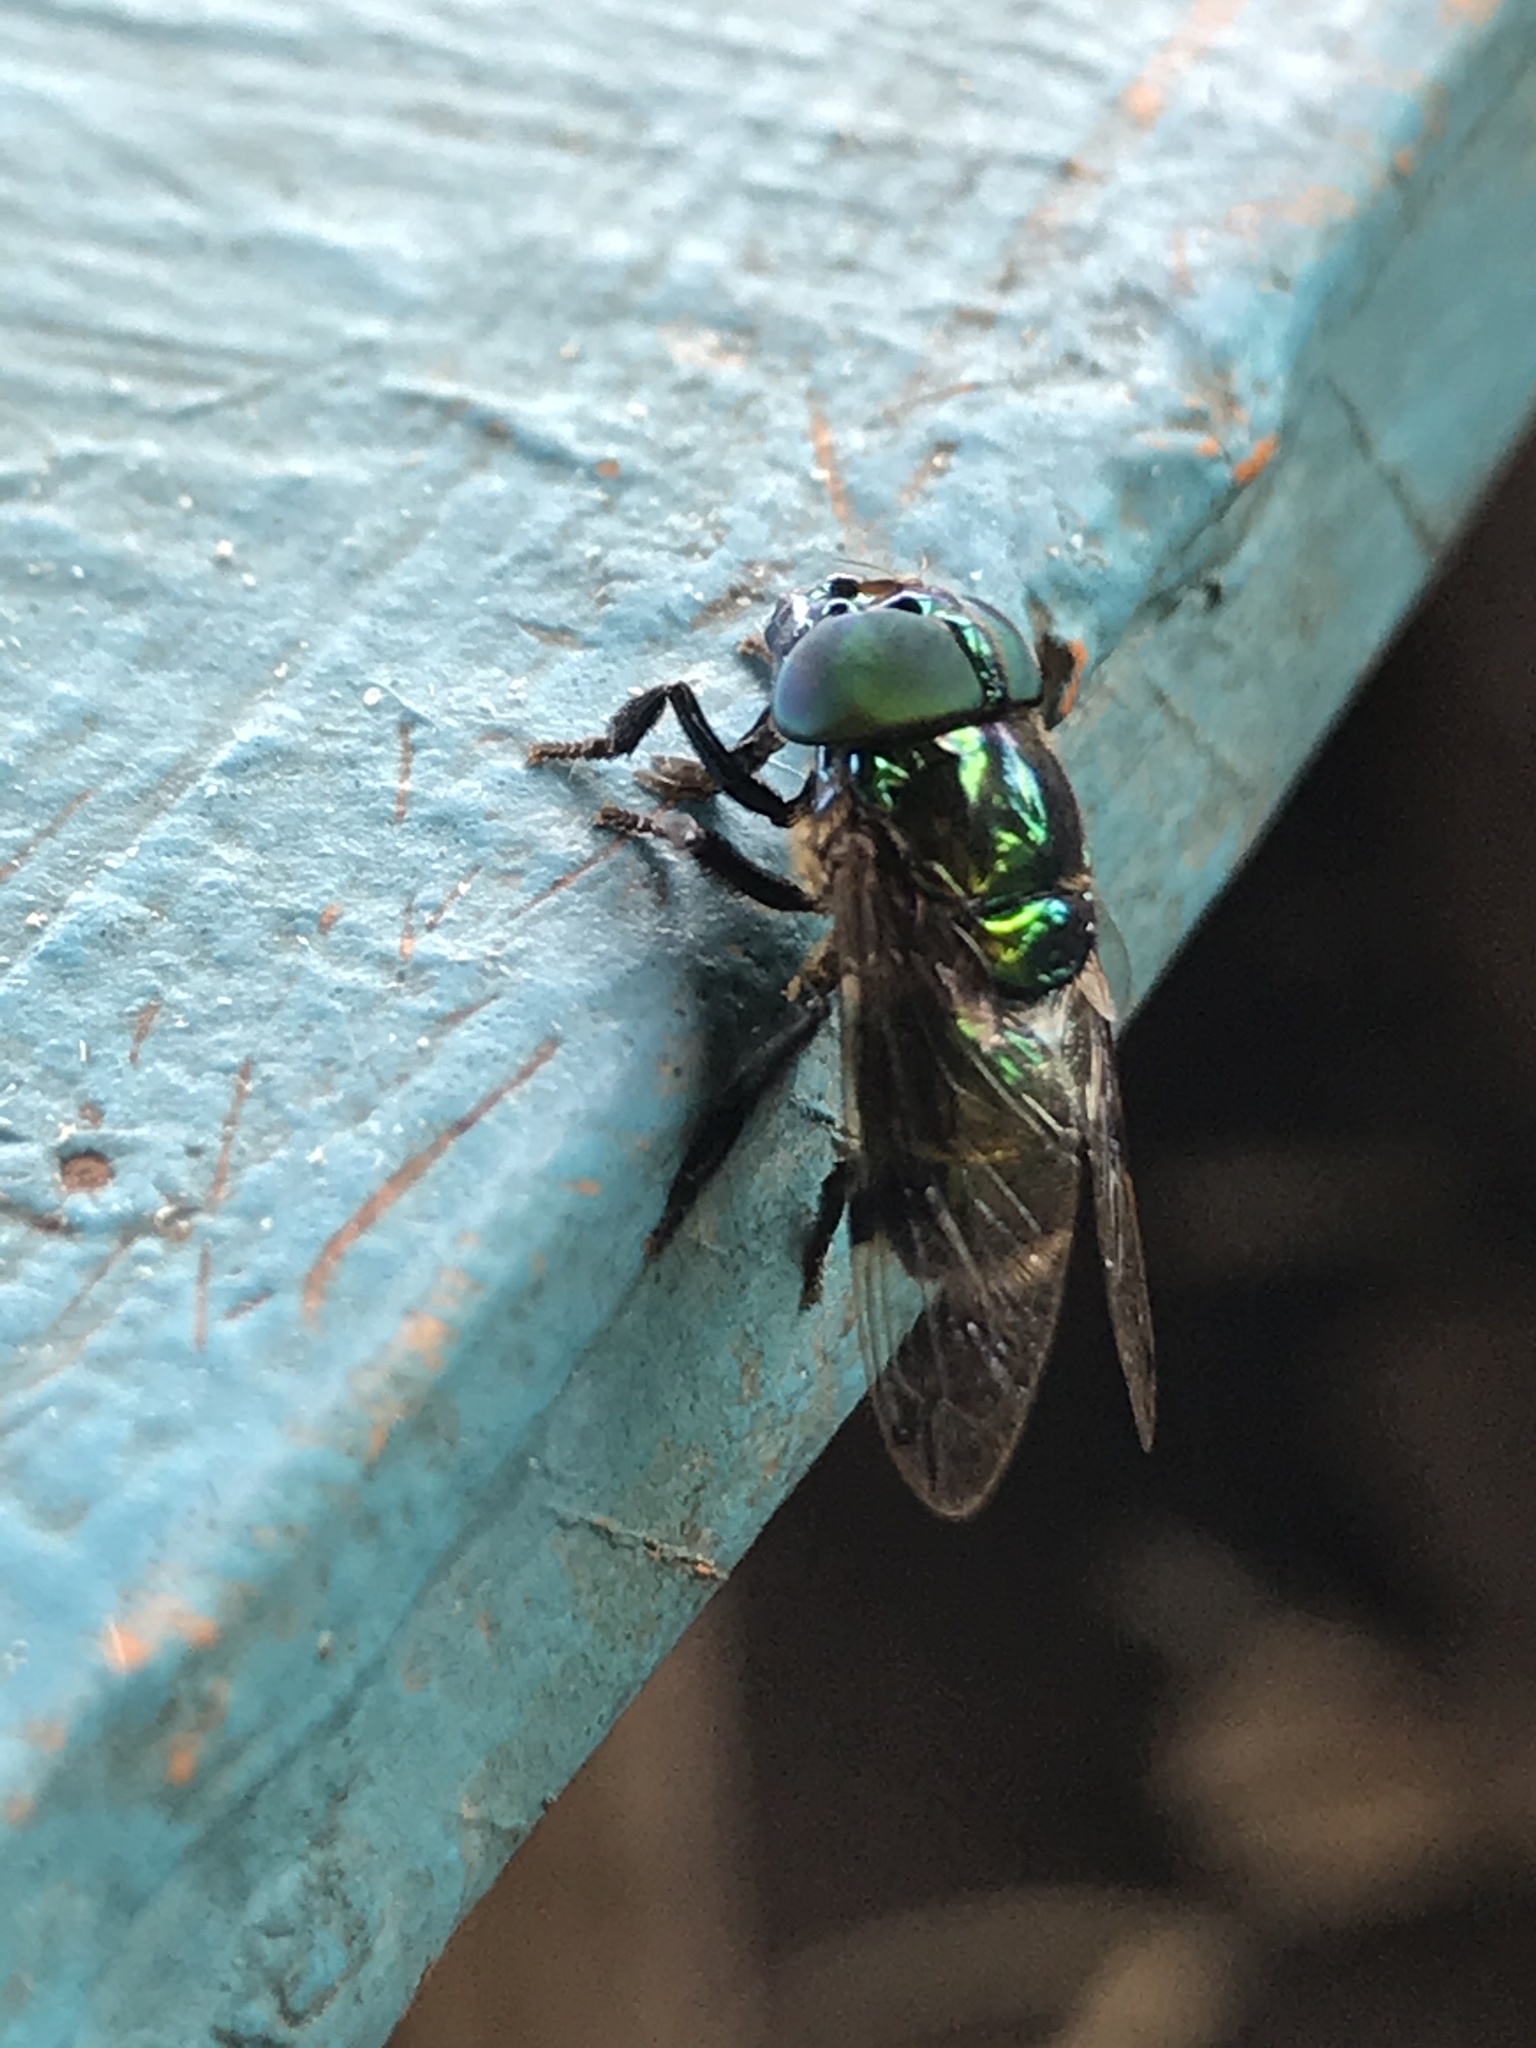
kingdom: Animalia
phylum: Arthropoda
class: Insecta
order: Diptera
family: Syrphidae
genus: Ornidia
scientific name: Ornidia obesa
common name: Syrphid fly
